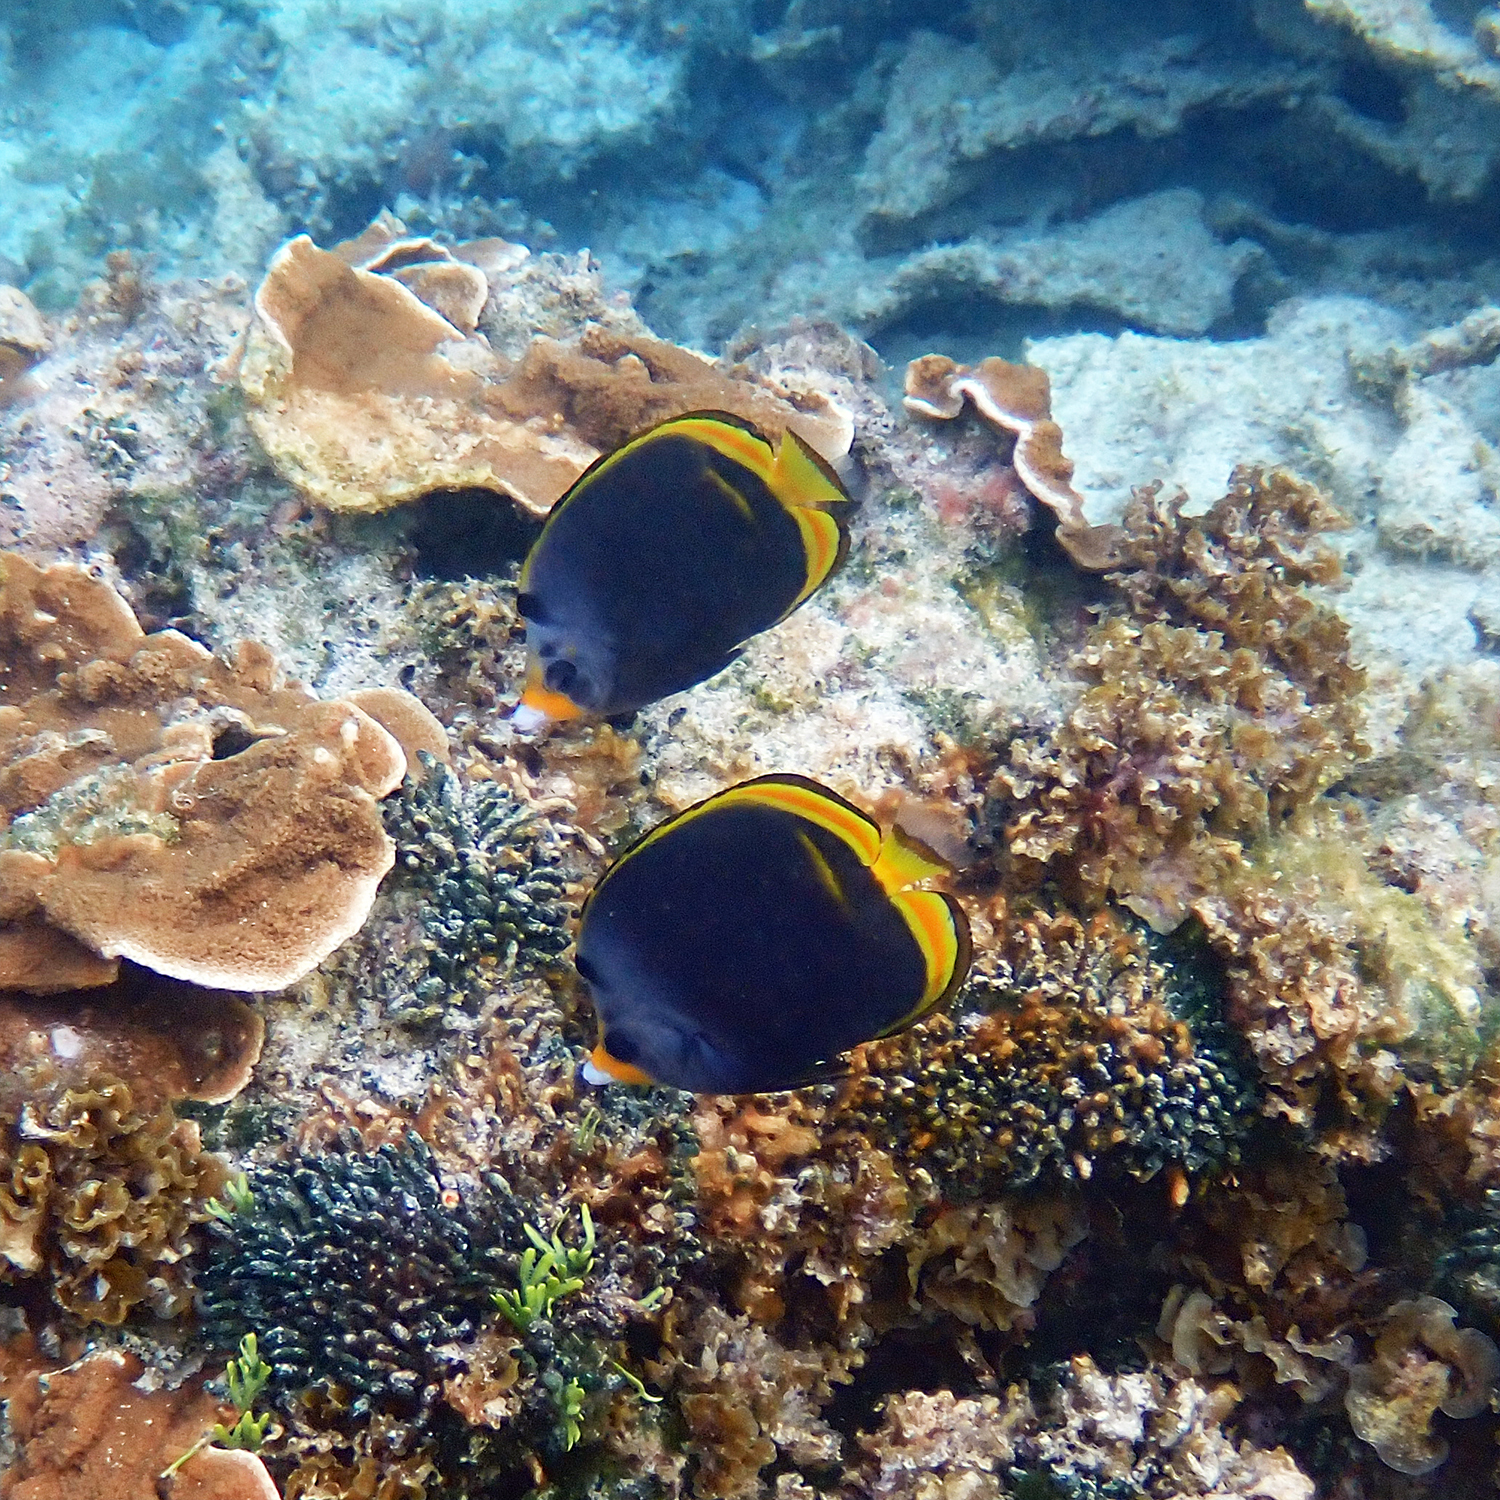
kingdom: Animalia
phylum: Chordata
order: Perciformes
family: Chaetodontidae
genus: Chaetodon
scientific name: Chaetodon flavirostris
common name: Black butterflyfish
